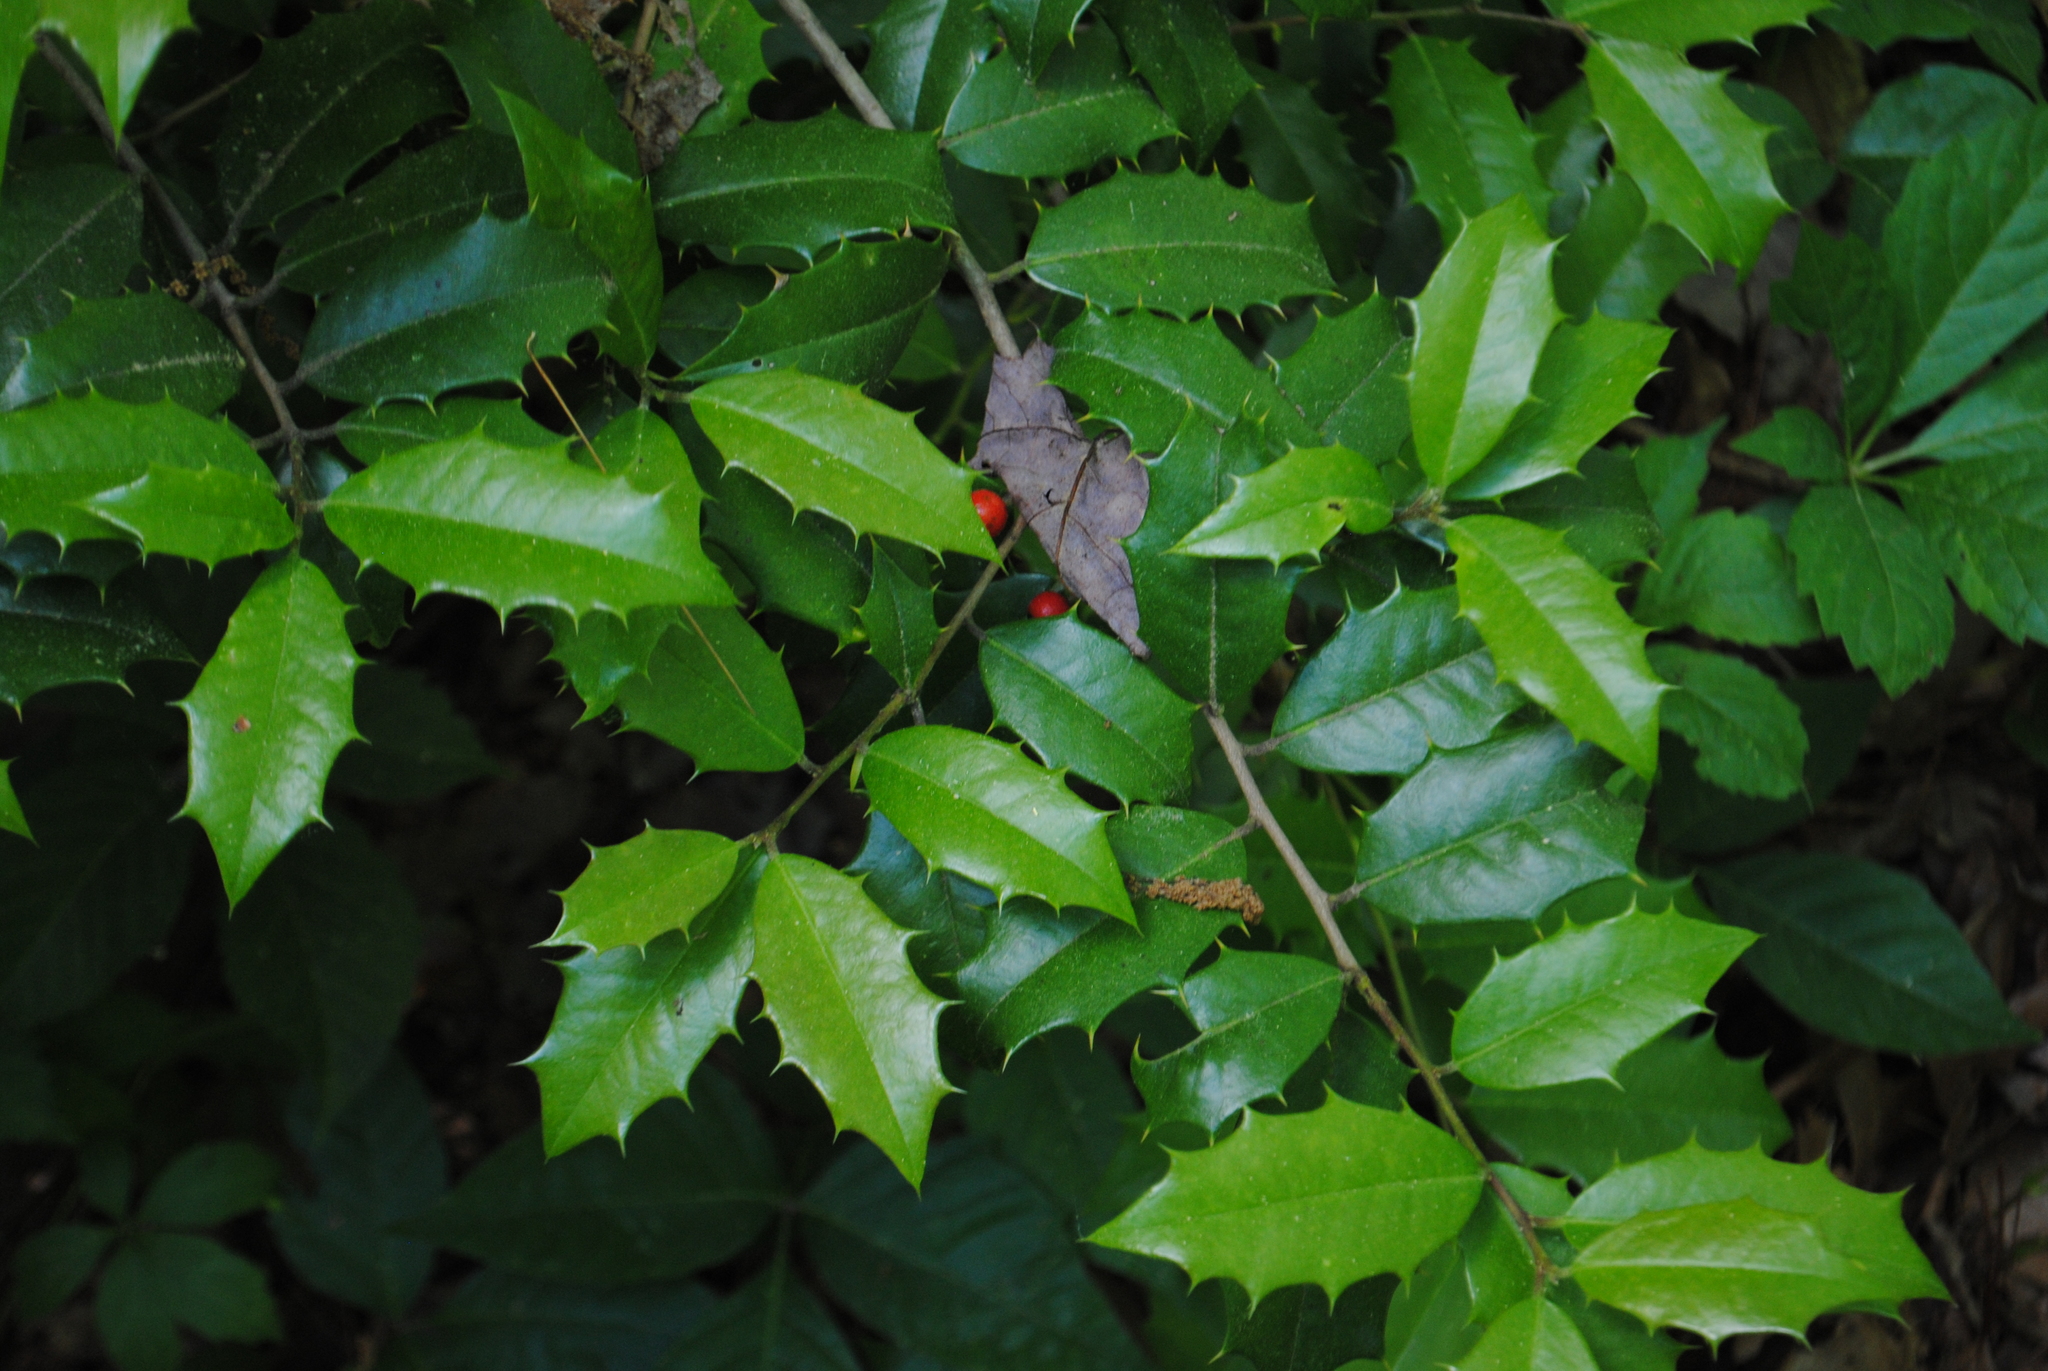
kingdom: Plantae
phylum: Tracheophyta
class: Magnoliopsida
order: Aquifoliales
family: Aquifoliaceae
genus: Ilex
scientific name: Ilex opaca
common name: American holly
